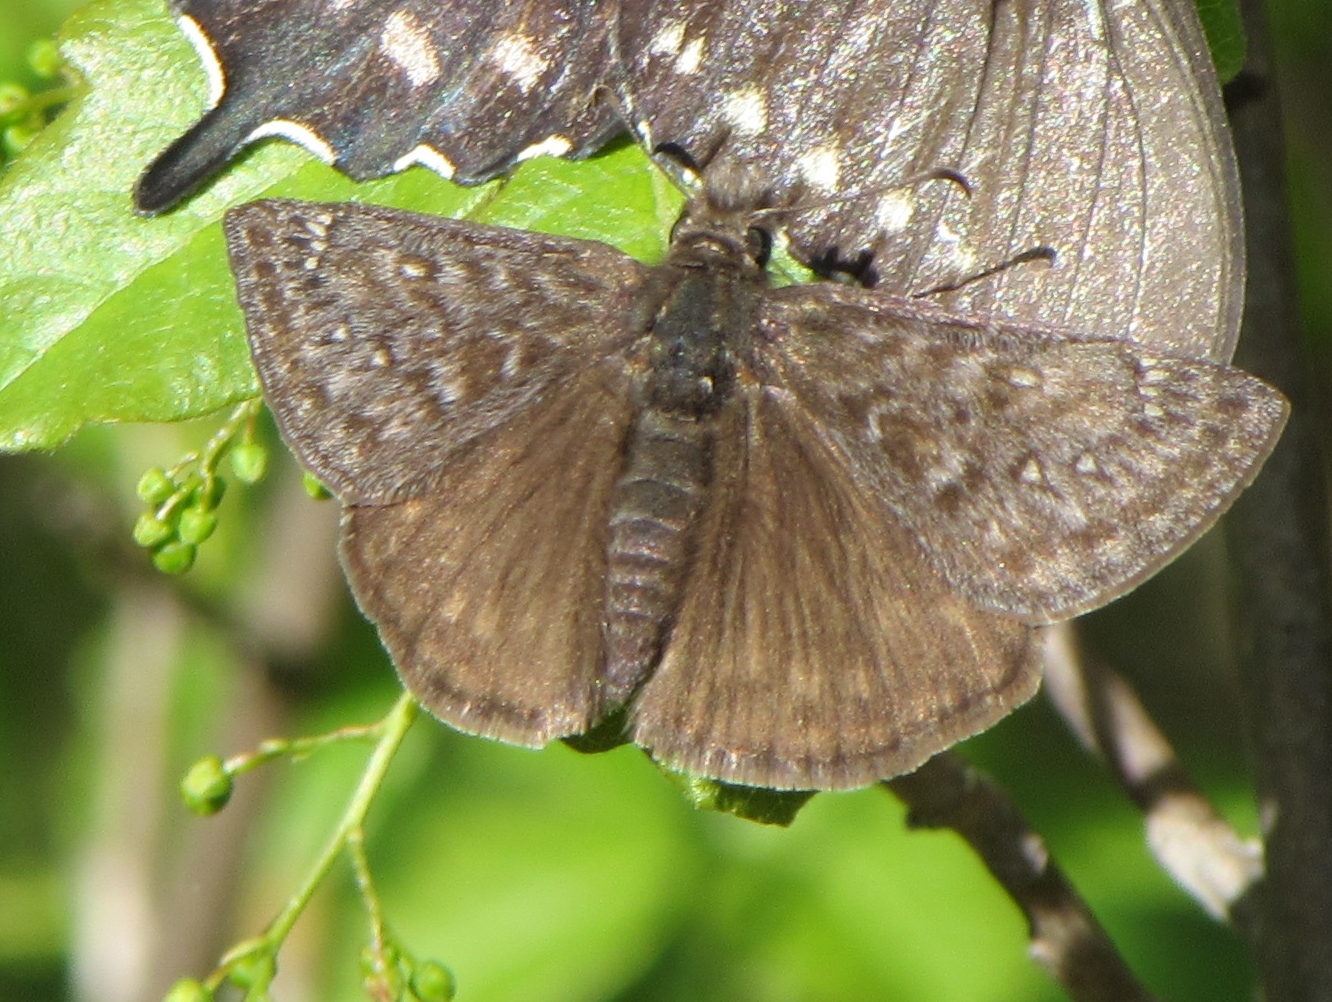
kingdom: Animalia
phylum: Arthropoda
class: Insecta
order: Lepidoptera
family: Hesperiidae
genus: Erynnis
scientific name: Erynnis propertius
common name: Propertius duskywing
